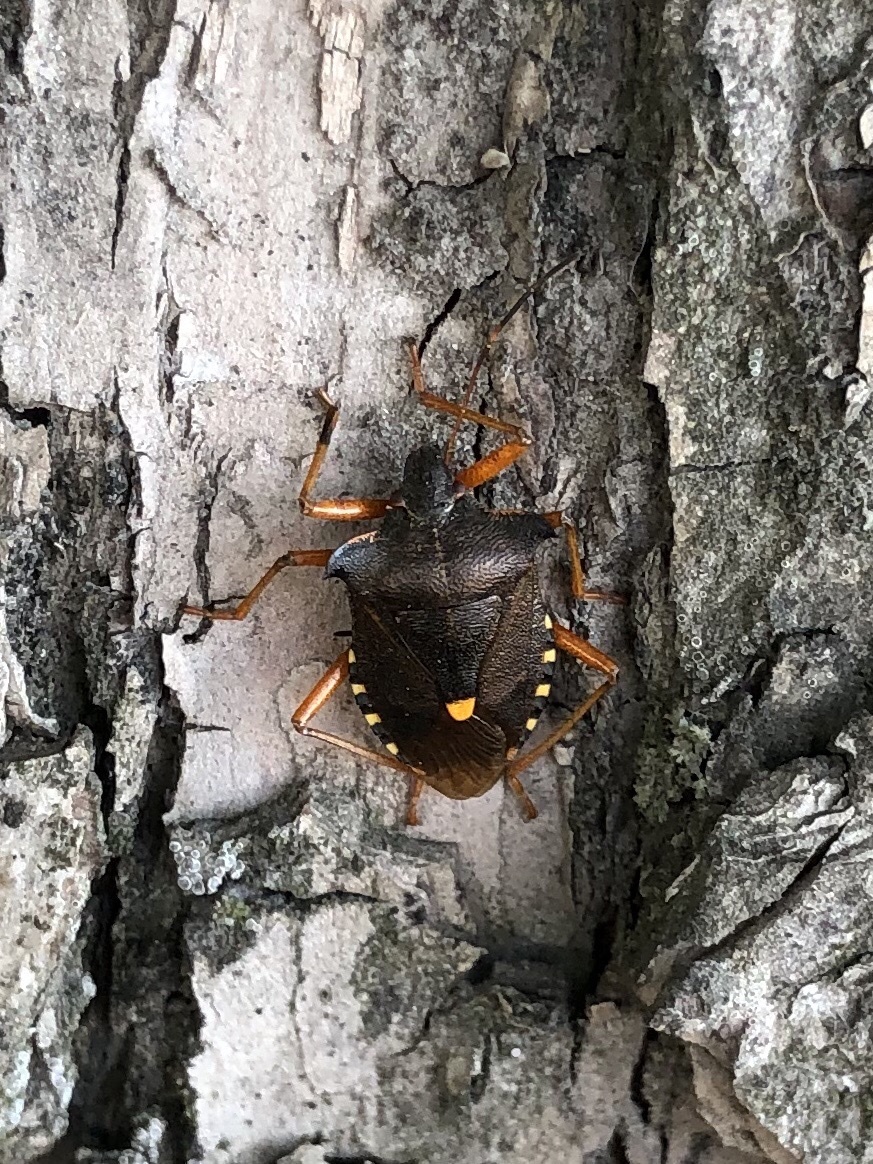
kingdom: Animalia
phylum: Arthropoda
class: Insecta
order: Hemiptera
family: Pentatomidae
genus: Pentatoma
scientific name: Pentatoma rufipes
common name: Forest bug
